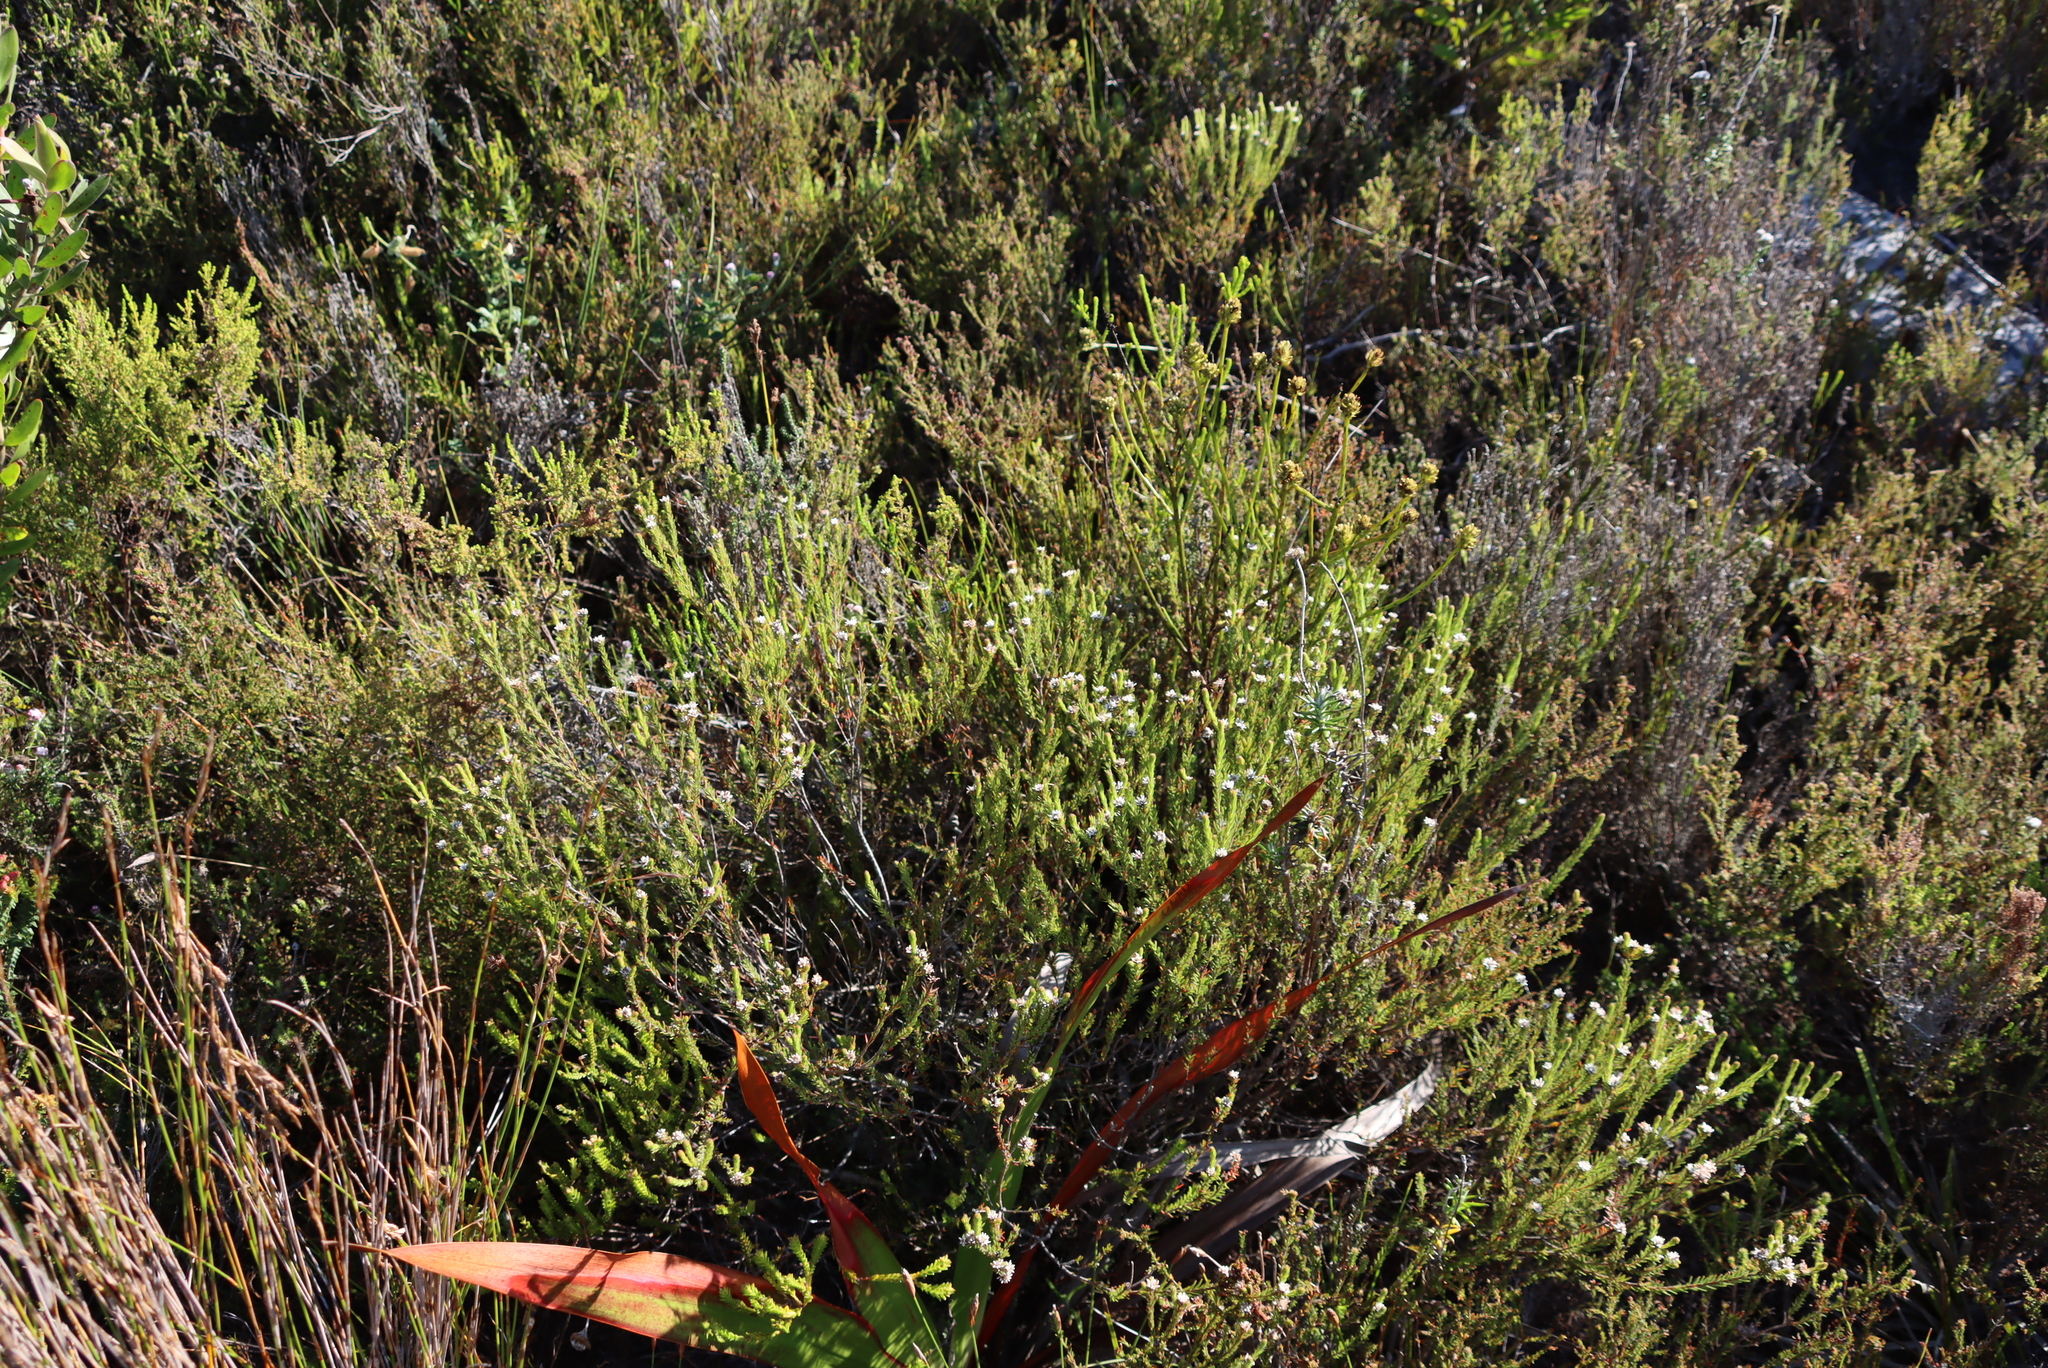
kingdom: Plantae
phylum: Tracheophyta
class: Magnoliopsida
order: Bruniales
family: Bruniaceae
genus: Staavia
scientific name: Staavia radiata
